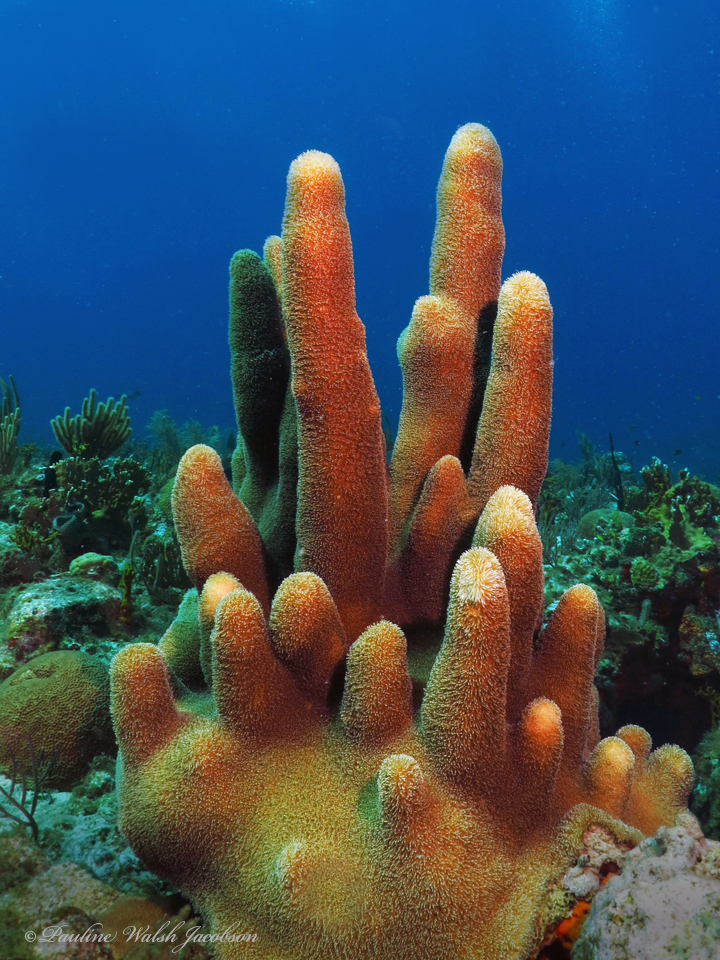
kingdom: Animalia
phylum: Cnidaria
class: Anthozoa
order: Scleractinia
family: Meandrinidae
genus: Dendrogyra
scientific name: Dendrogyra cylindrus
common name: Pillar coral
